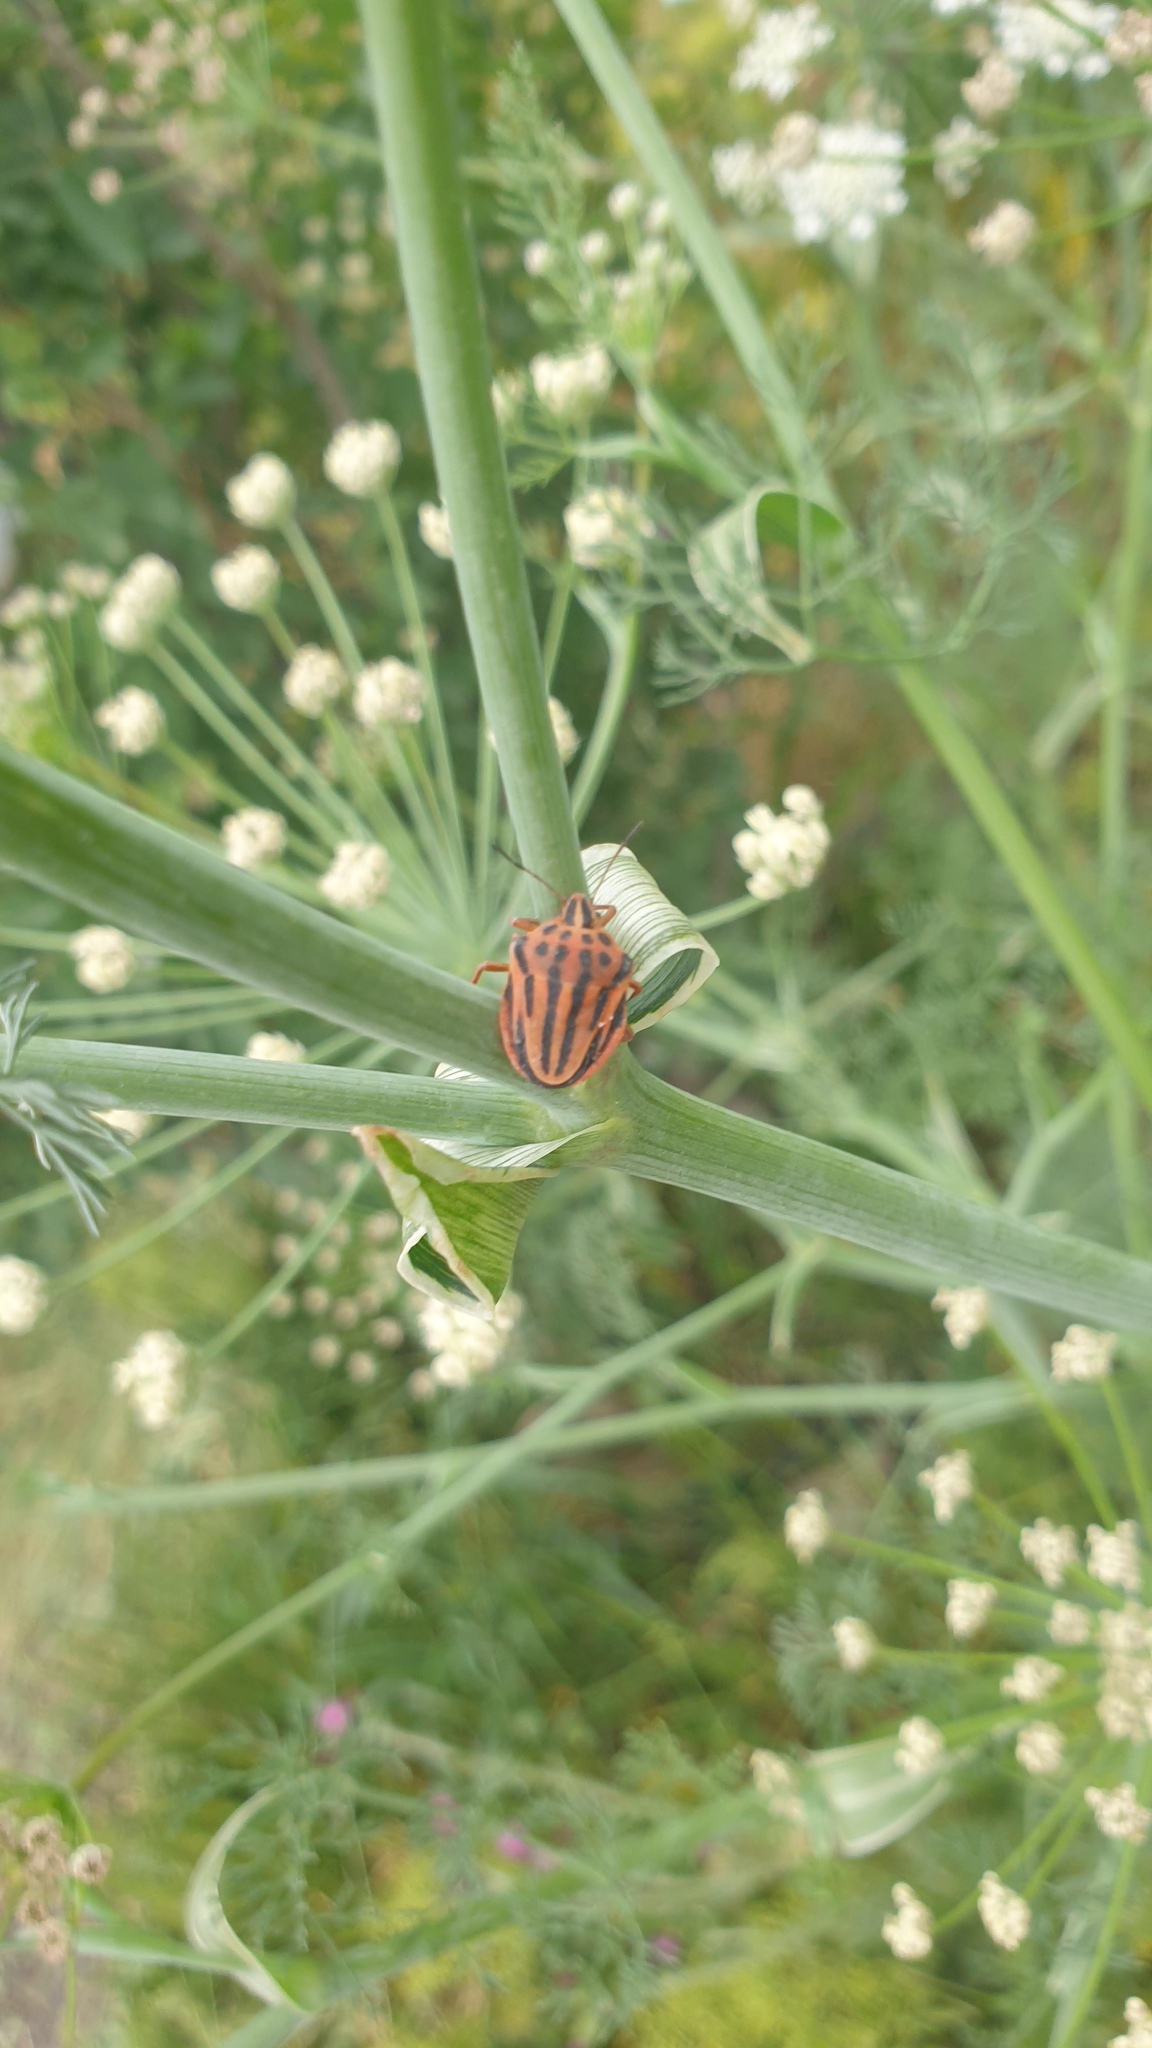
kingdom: Animalia
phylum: Arthropoda
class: Insecta
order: Hemiptera
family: Pentatomidae
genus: Graphosoma
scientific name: Graphosoma semipunctatum
